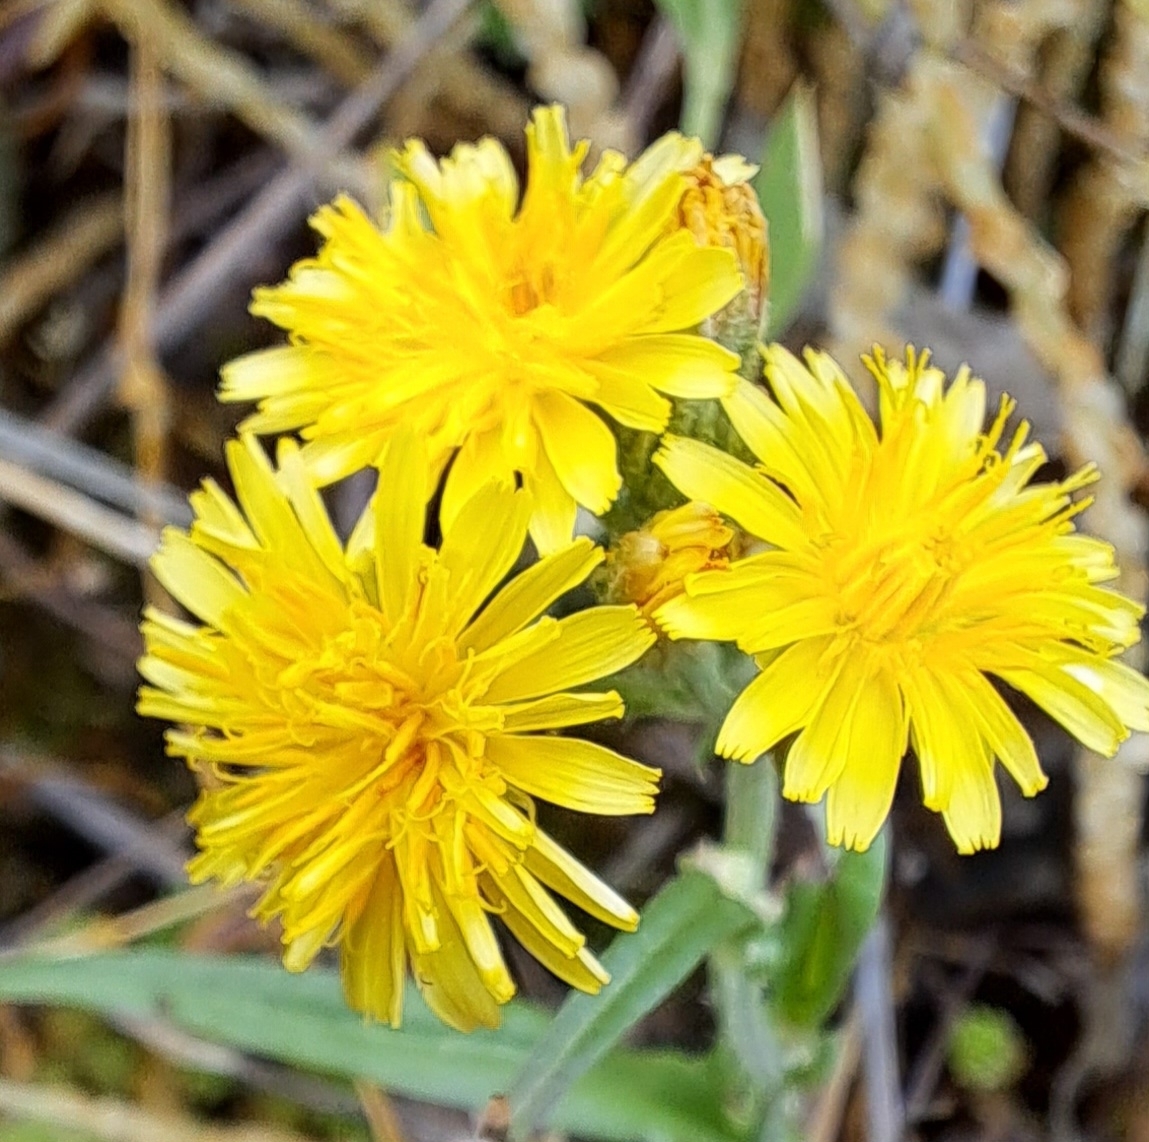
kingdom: Plantae
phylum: Tracheophyta
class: Magnoliopsida
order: Asterales
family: Asteraceae
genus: Crepis
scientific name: Crepis capillaris
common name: Smooth hawksbeard
